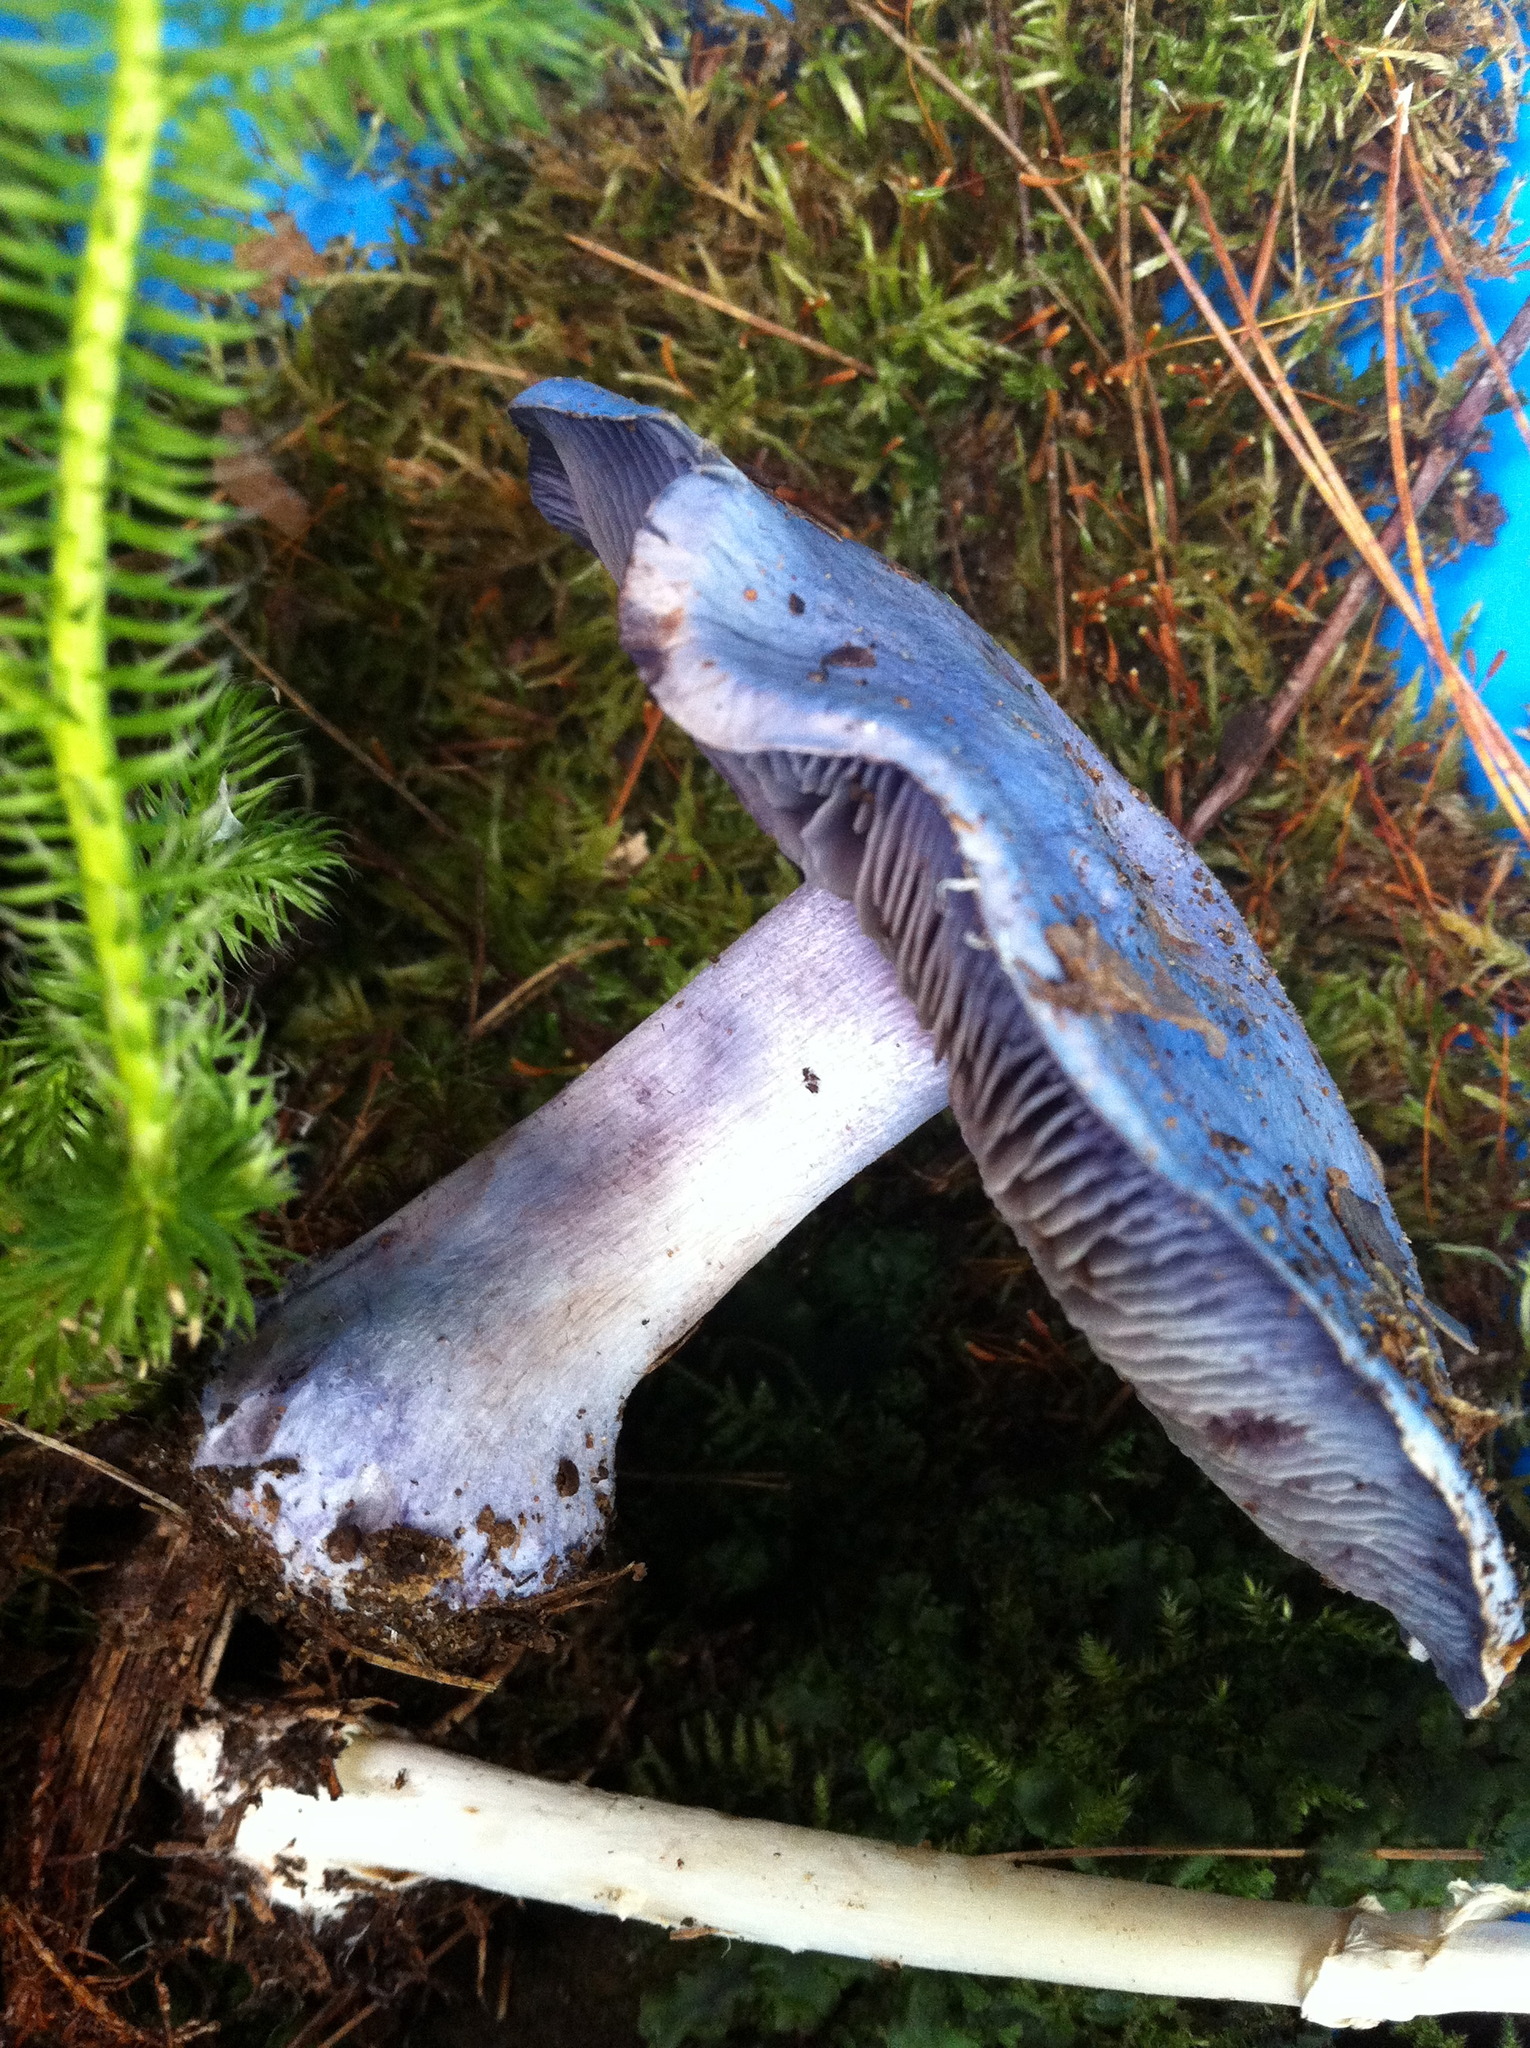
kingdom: Fungi
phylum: Basidiomycota
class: Agaricomycetes
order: Agaricales
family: Tricholomataceae
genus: Collybia
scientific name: Collybia
